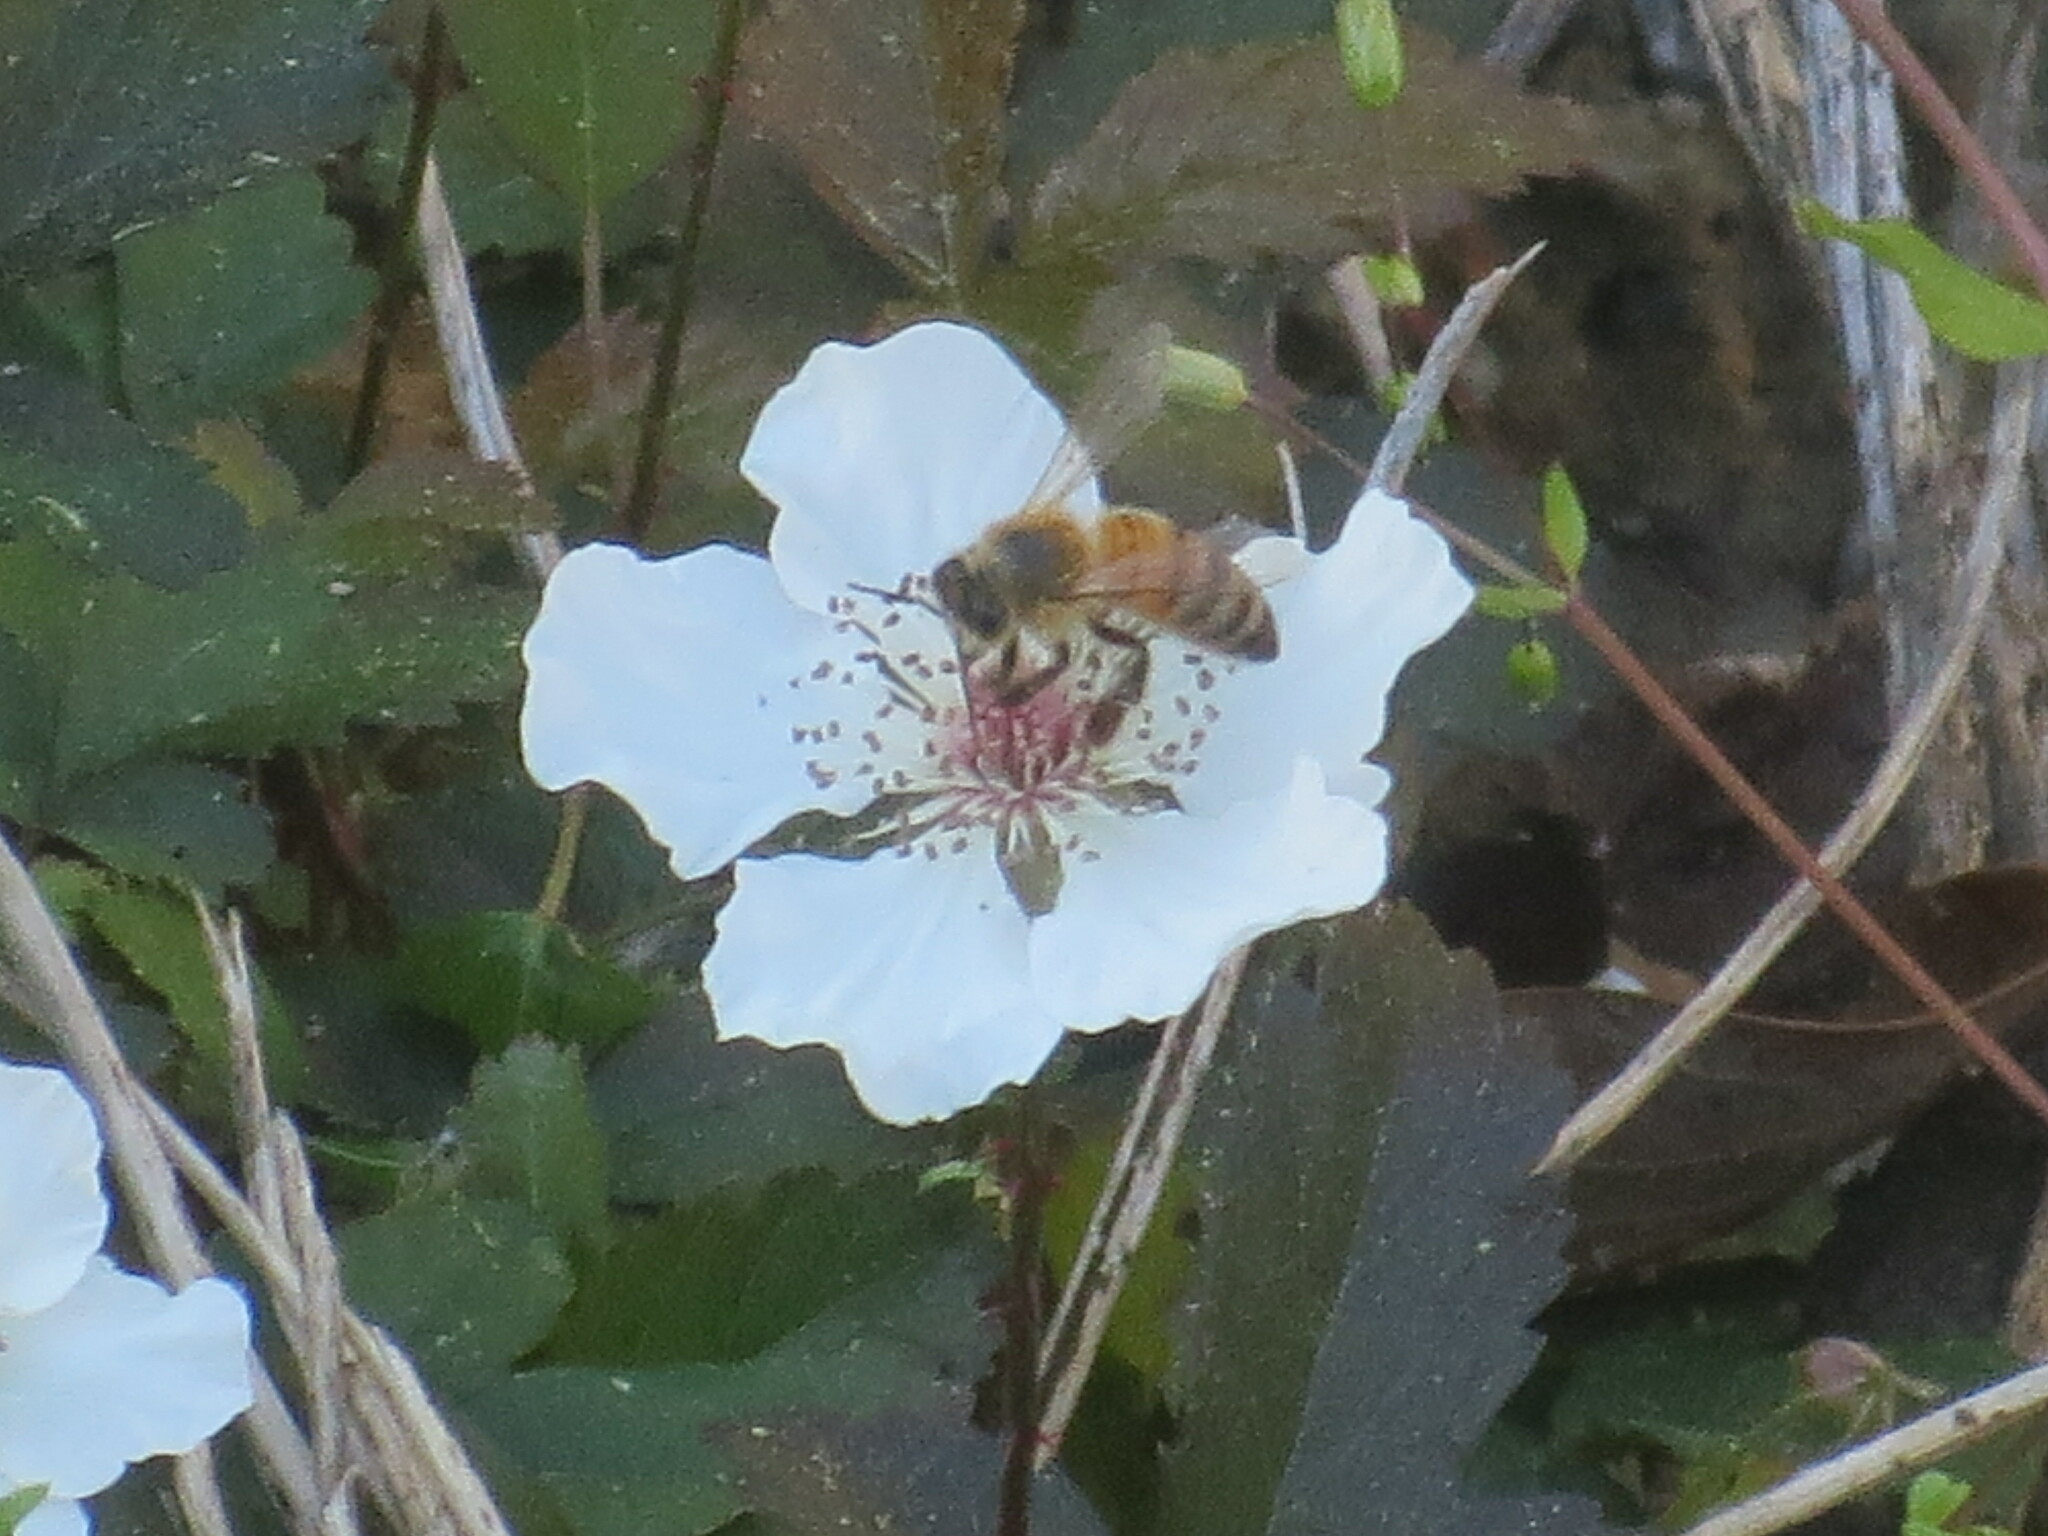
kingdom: Animalia
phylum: Arthropoda
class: Insecta
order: Hymenoptera
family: Apidae
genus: Apis
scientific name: Apis mellifera
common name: Honey bee
